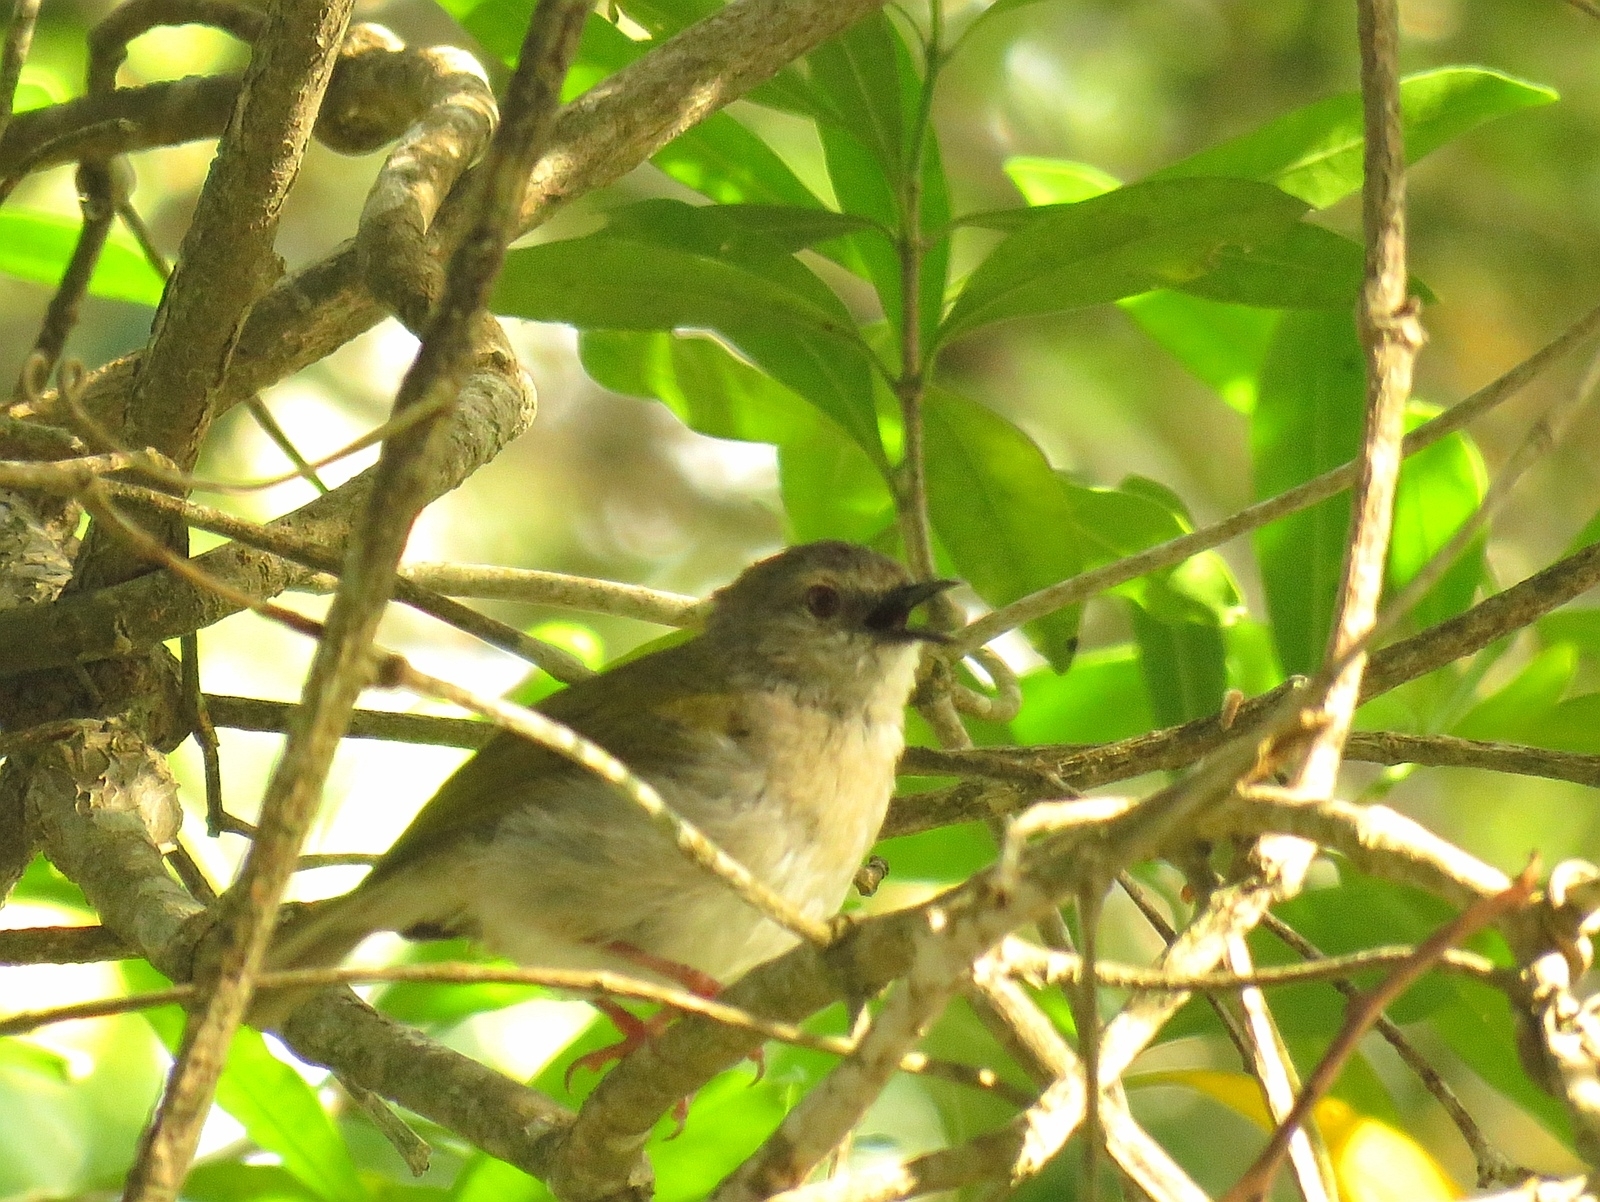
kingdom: Animalia
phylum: Chordata
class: Aves
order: Passeriformes
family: Cisticolidae
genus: Camaroptera
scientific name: Camaroptera brachyura
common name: Green-backed camaroptera
